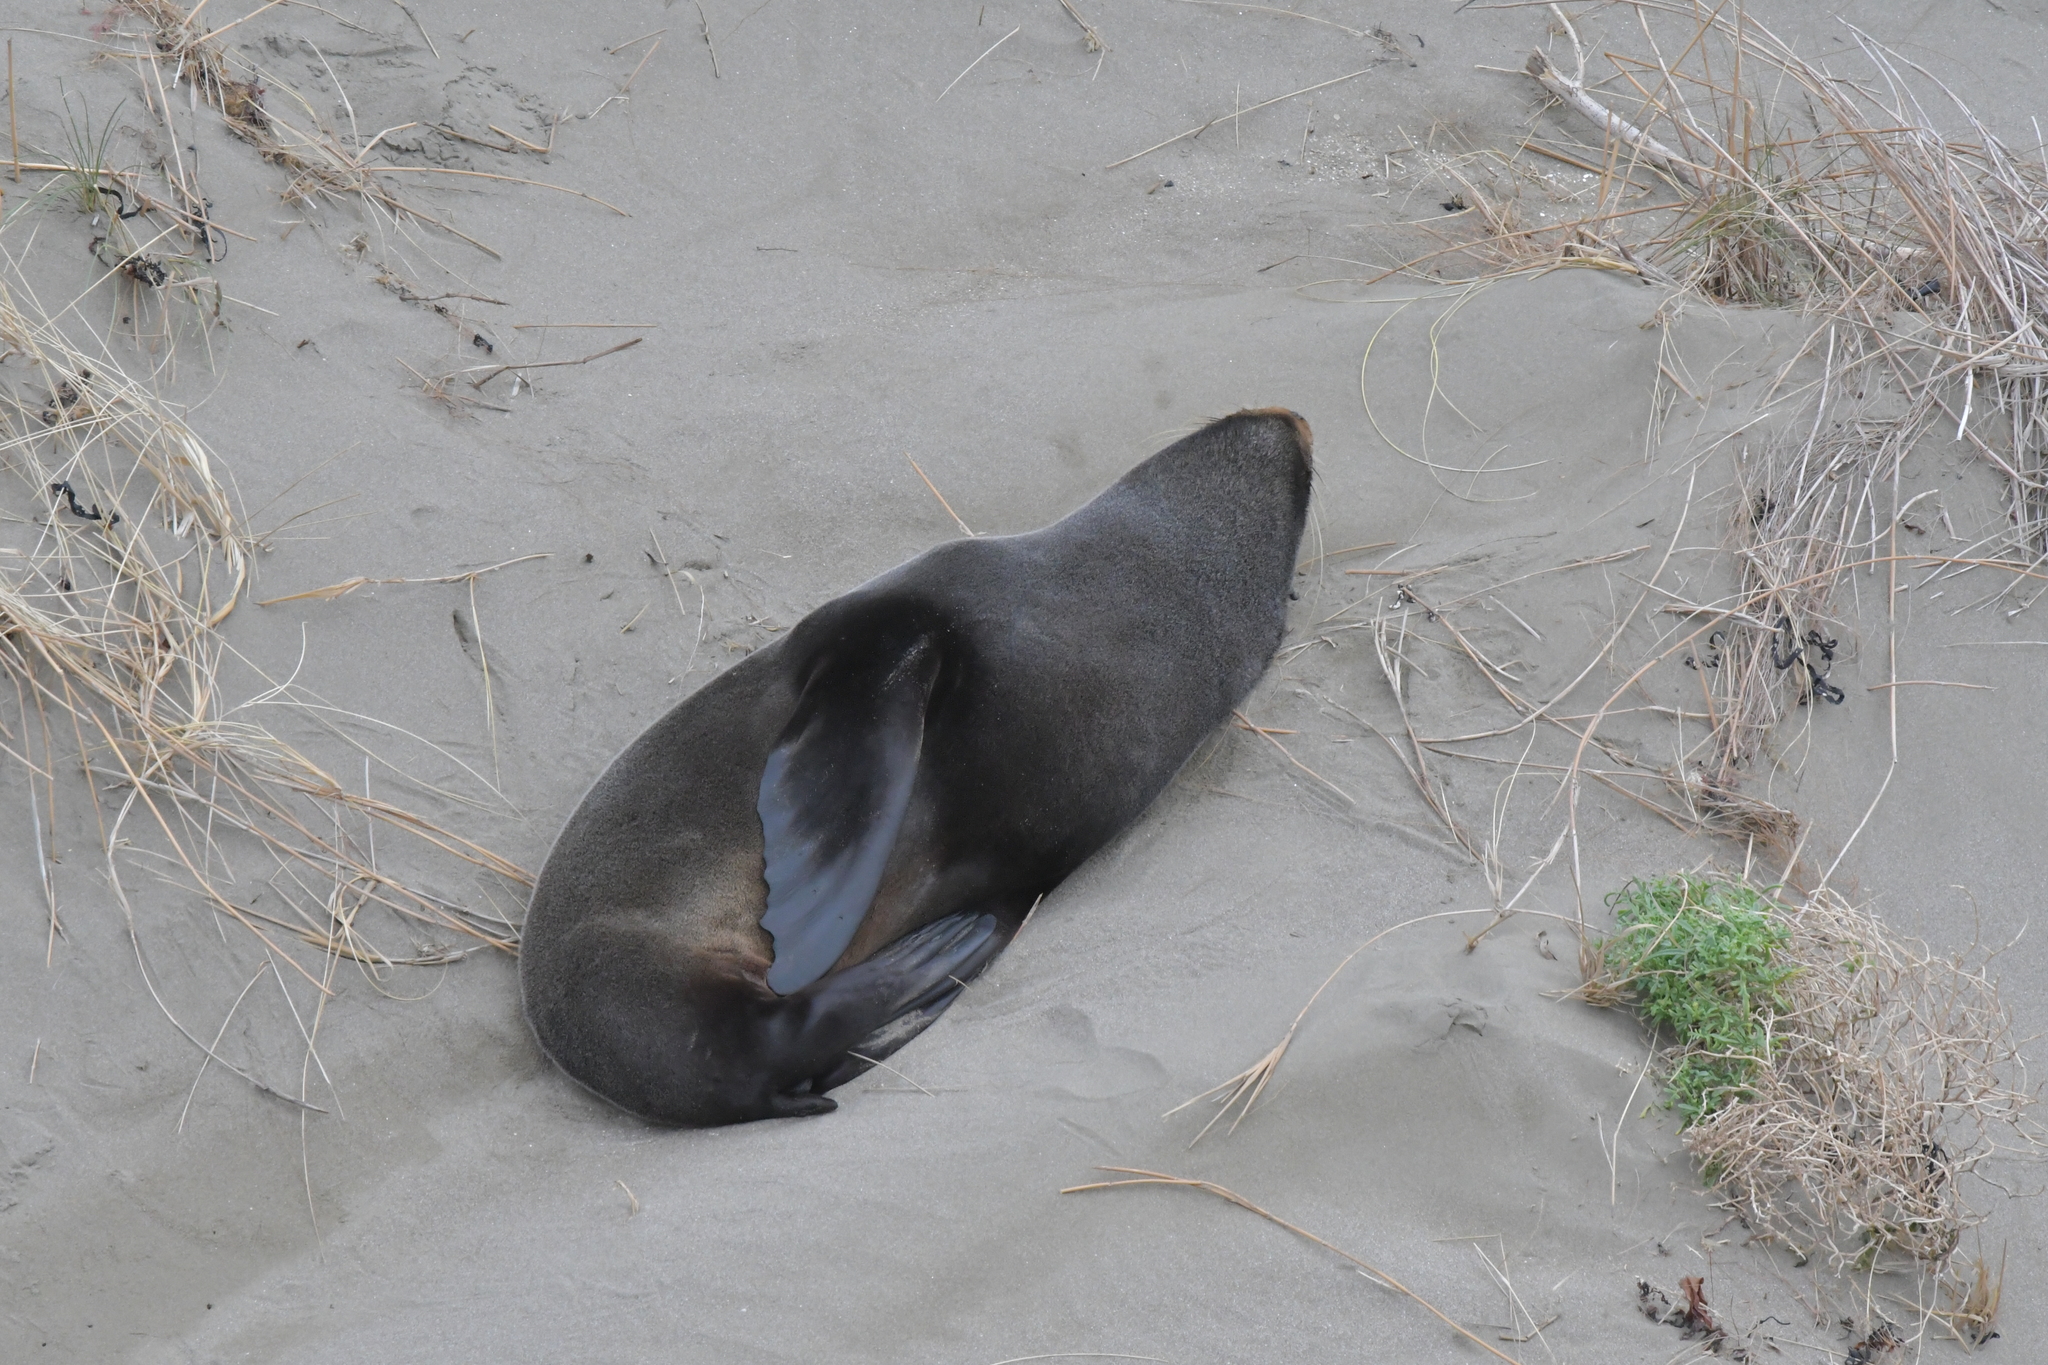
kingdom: Animalia
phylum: Chordata
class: Mammalia
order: Carnivora
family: Otariidae
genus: Arctocephalus
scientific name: Arctocephalus forsteri
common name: New zealand fur seal
